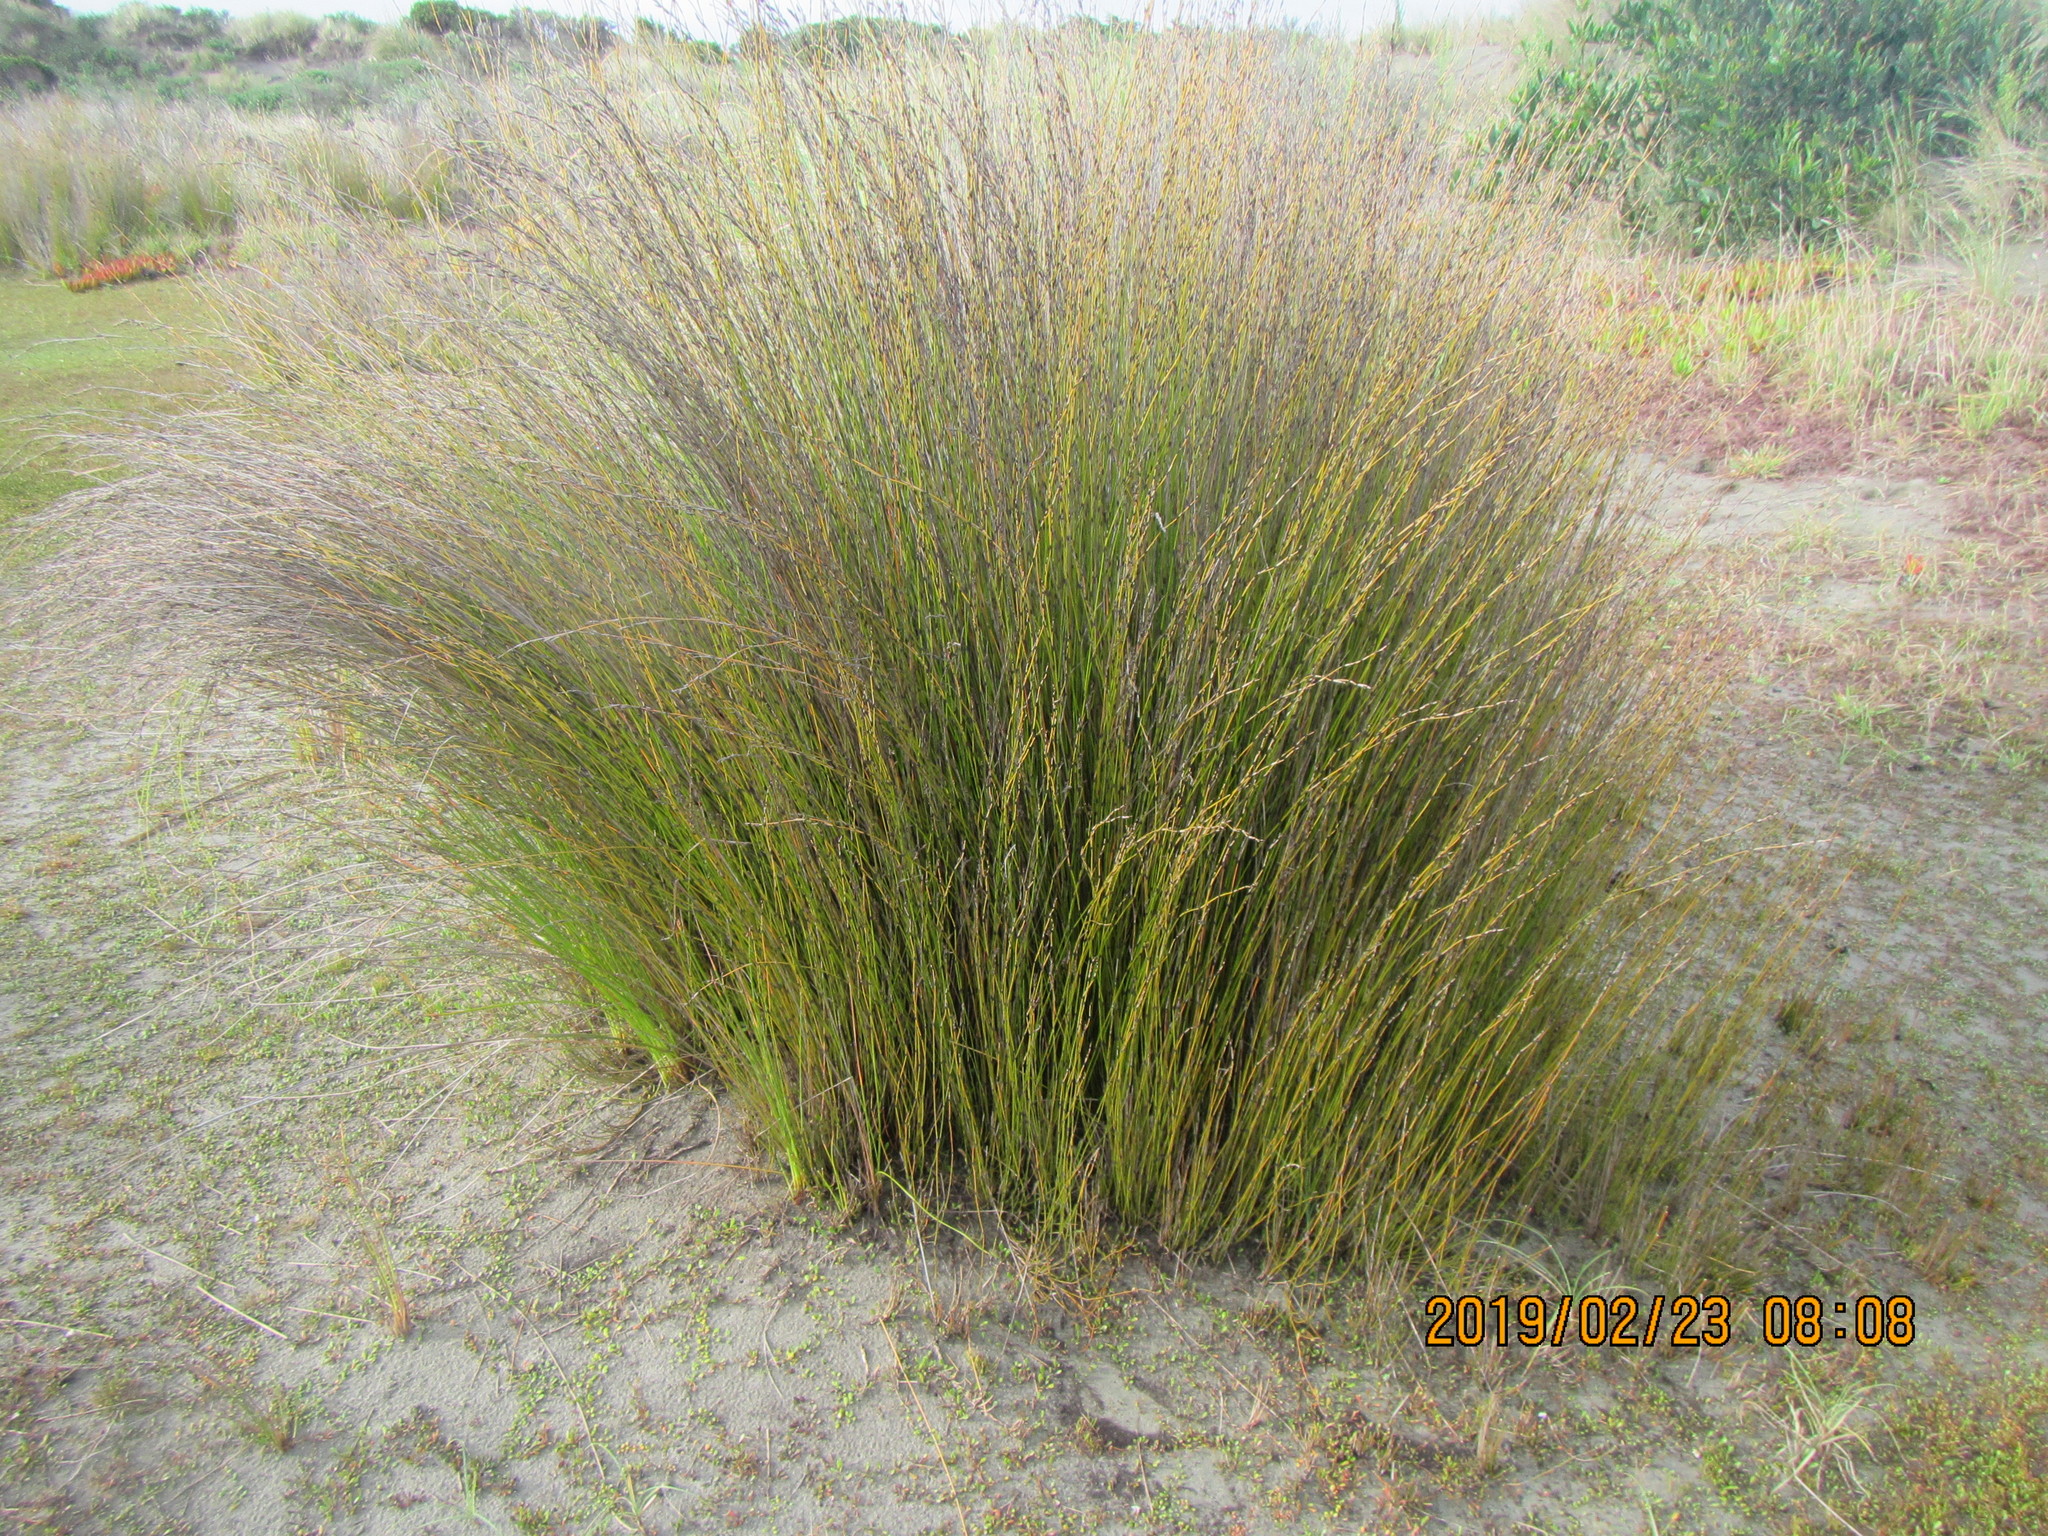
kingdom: Animalia
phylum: Arthropoda
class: Arachnida
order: Araneae
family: Pisauridae
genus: Dolomedes
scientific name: Dolomedes minor
